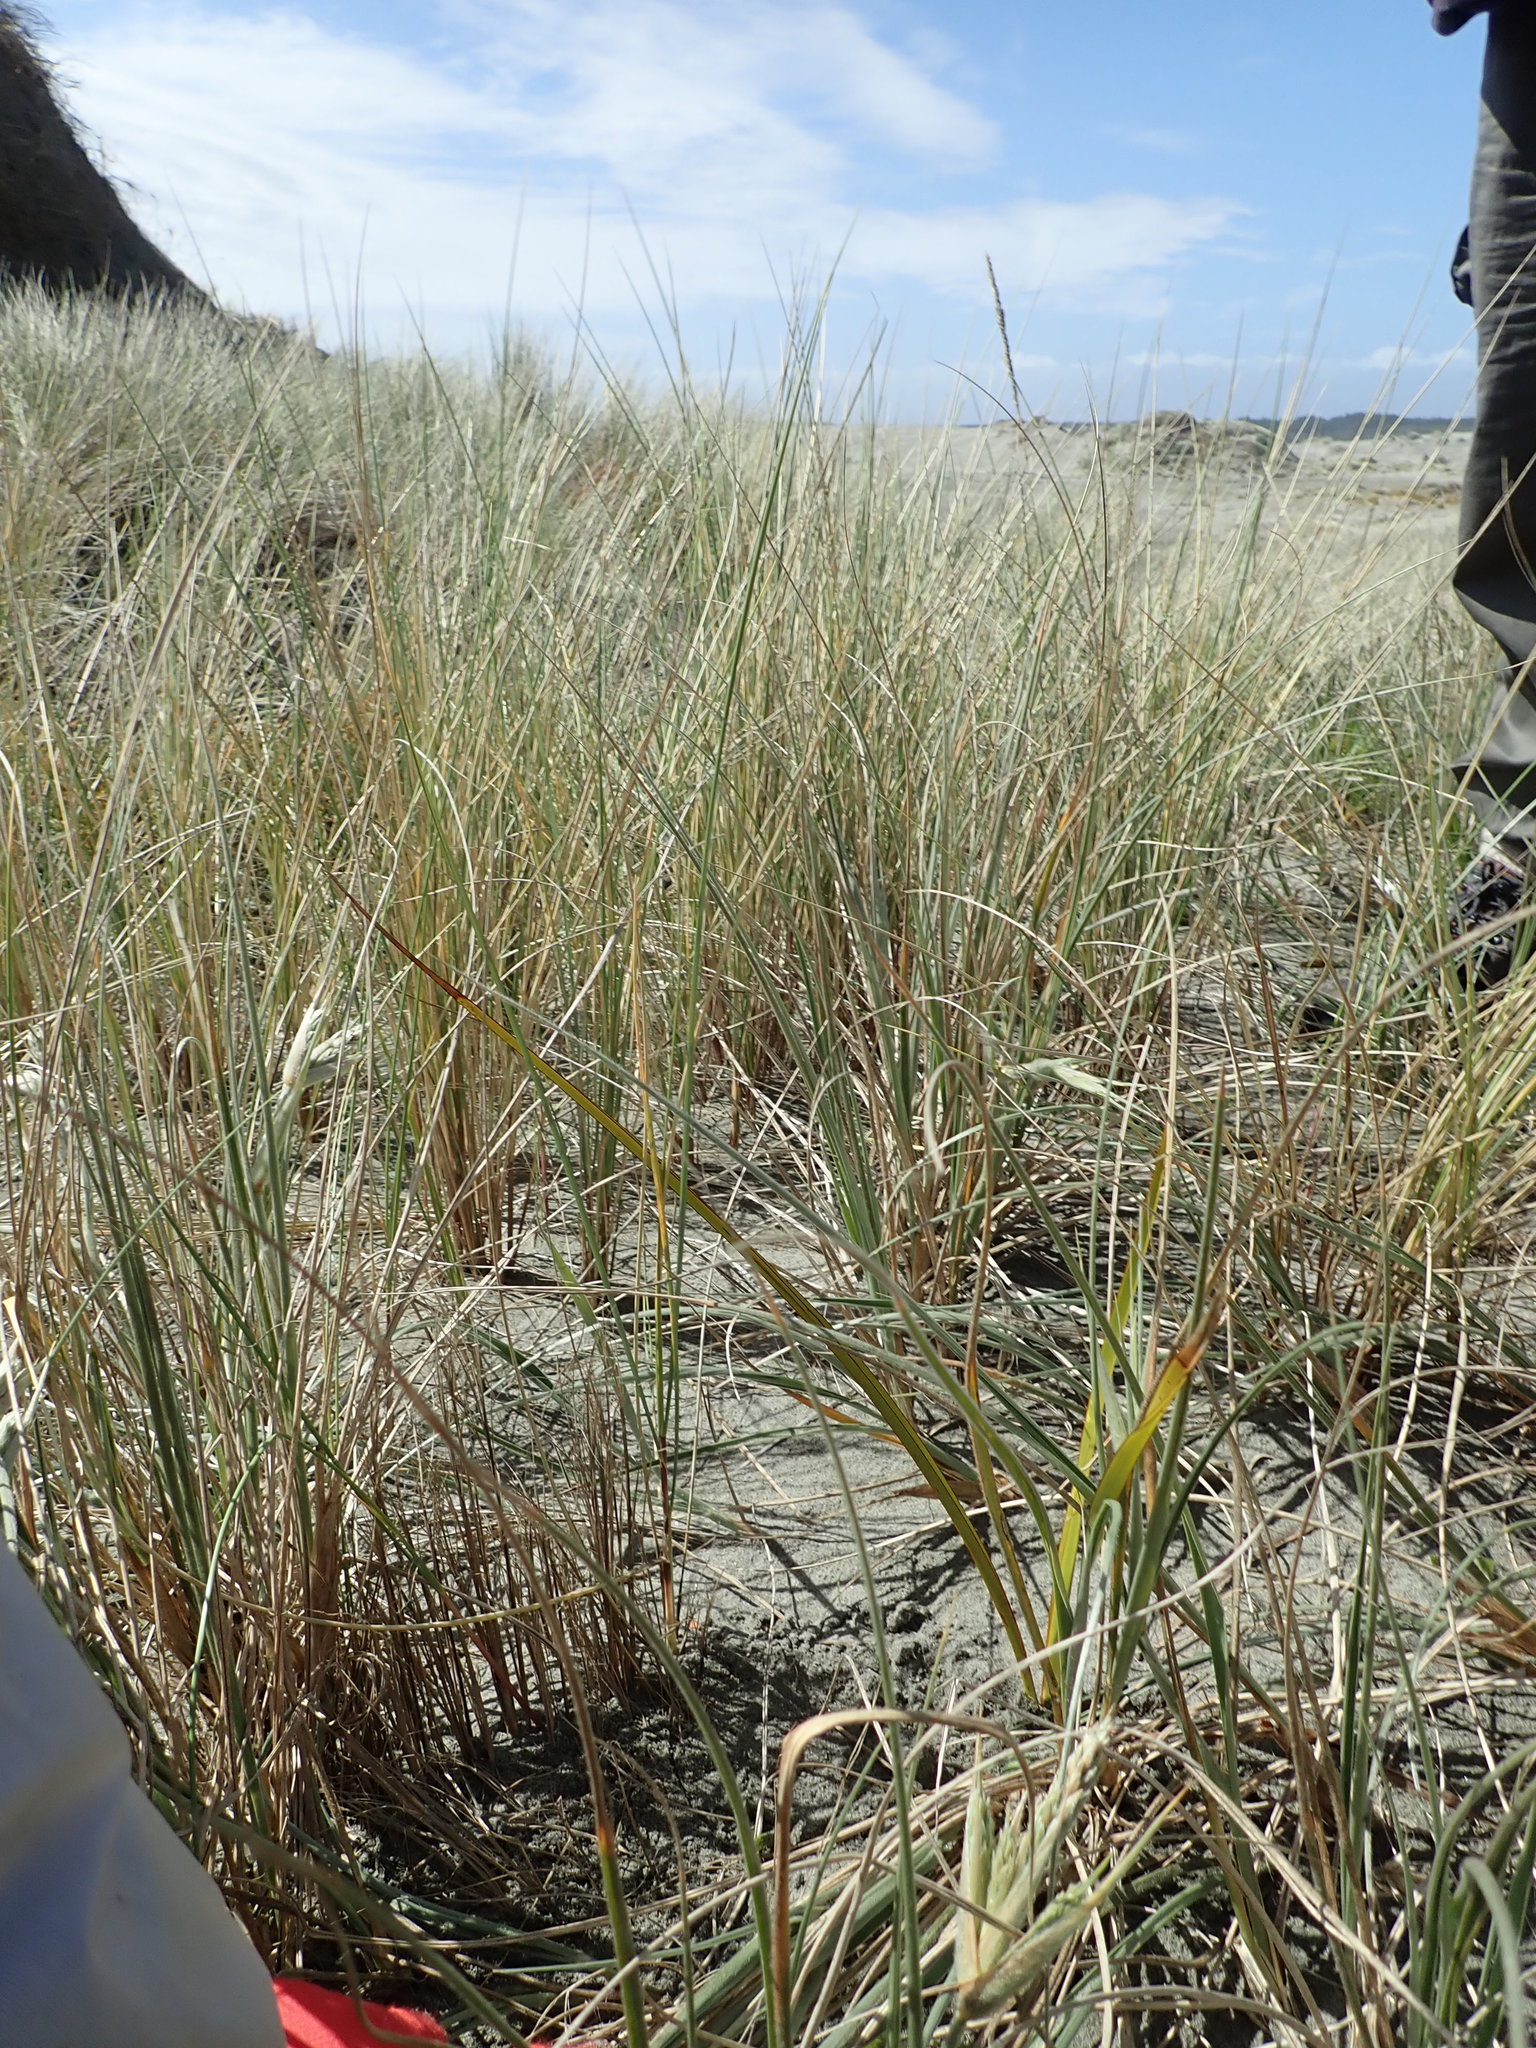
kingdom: Plantae
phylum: Tracheophyta
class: Liliopsida
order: Asparagales
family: Asphodelaceae
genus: Phormium
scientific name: Phormium tenax
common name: New zealand flax
